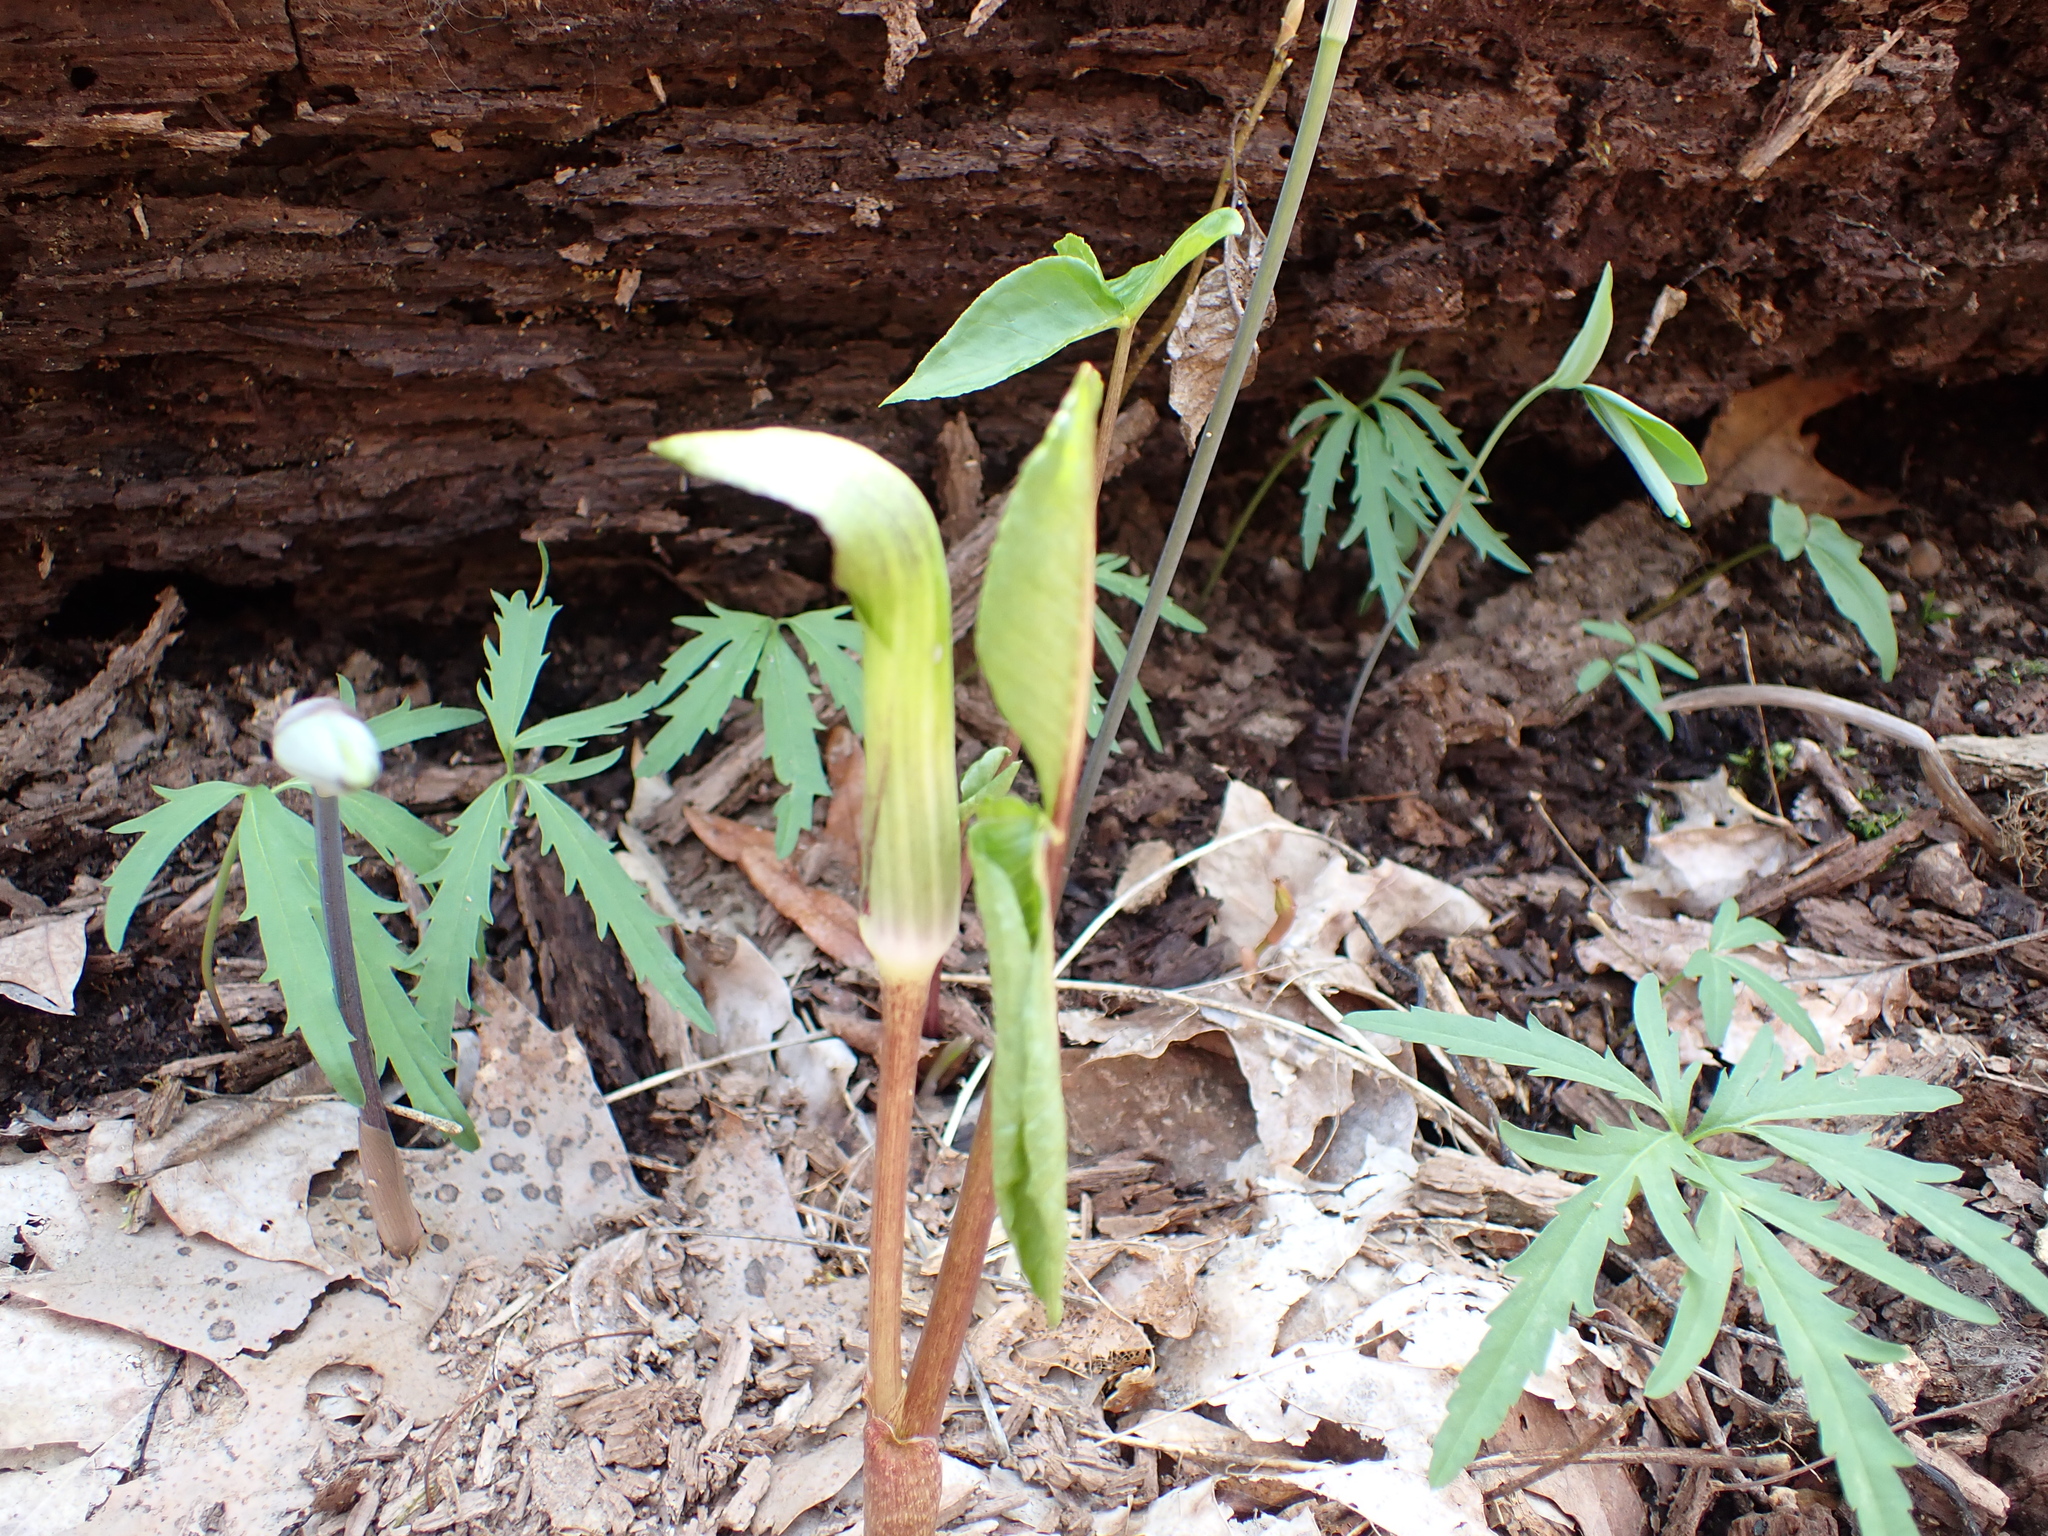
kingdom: Plantae
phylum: Tracheophyta
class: Liliopsida
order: Alismatales
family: Araceae
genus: Arisaema
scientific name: Arisaema triphyllum
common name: Jack-in-the-pulpit
